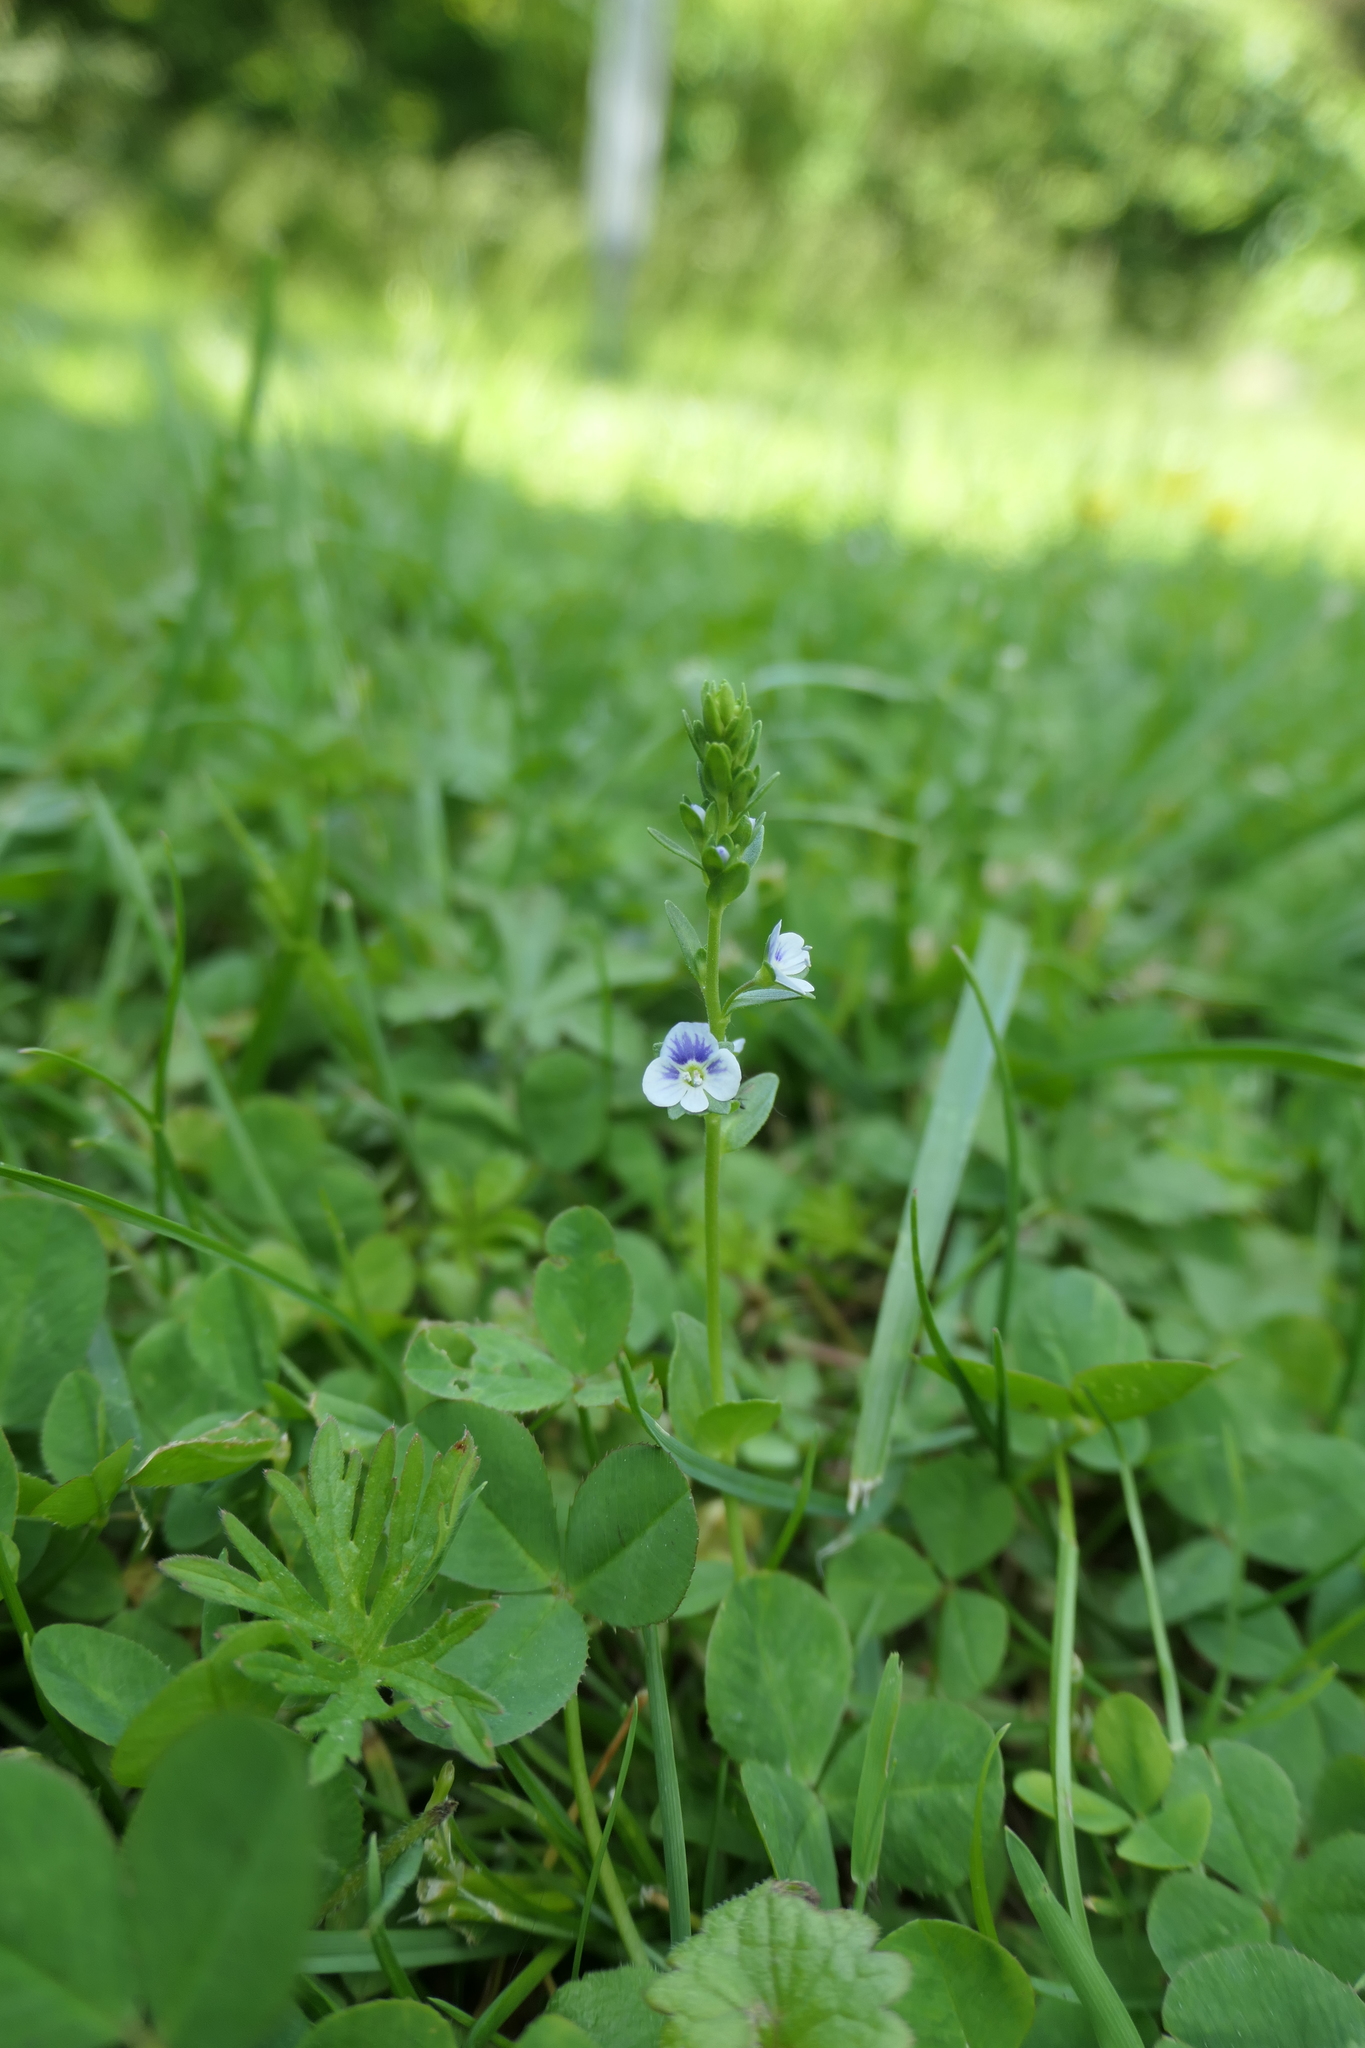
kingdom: Plantae
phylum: Tracheophyta
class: Magnoliopsida
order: Lamiales
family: Plantaginaceae
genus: Veronica
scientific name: Veronica serpyllifolia
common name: Thyme-leaved speedwell
